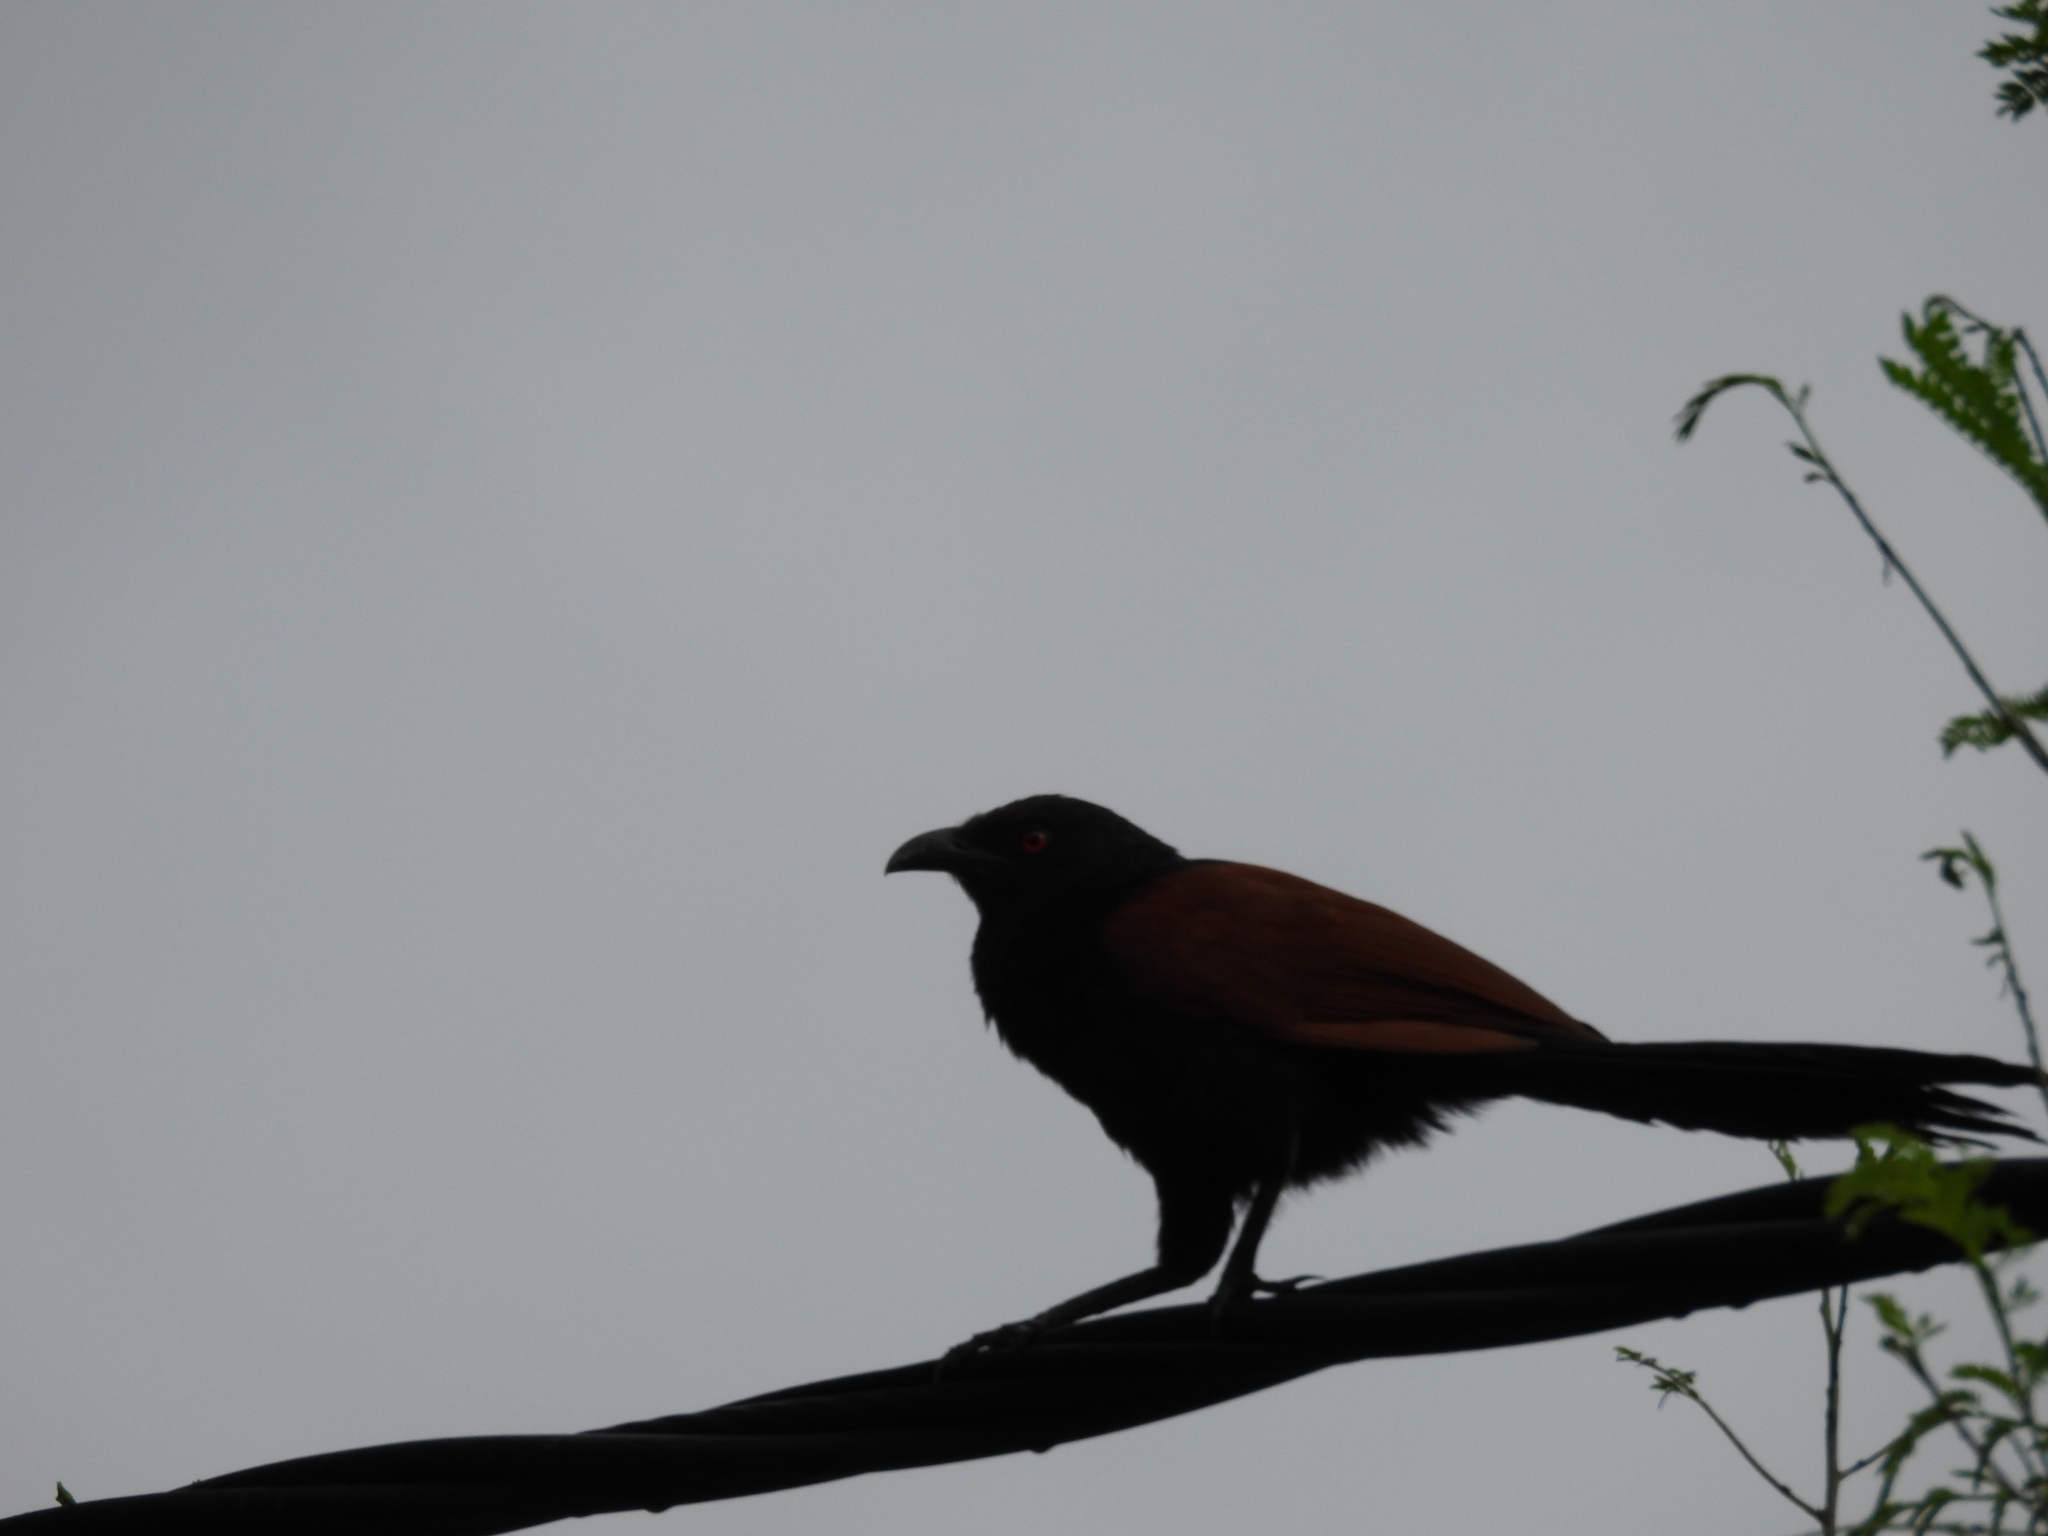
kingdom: Animalia
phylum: Chordata
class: Aves
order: Cuculiformes
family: Cuculidae
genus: Centropus
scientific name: Centropus sinensis
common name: Greater coucal
